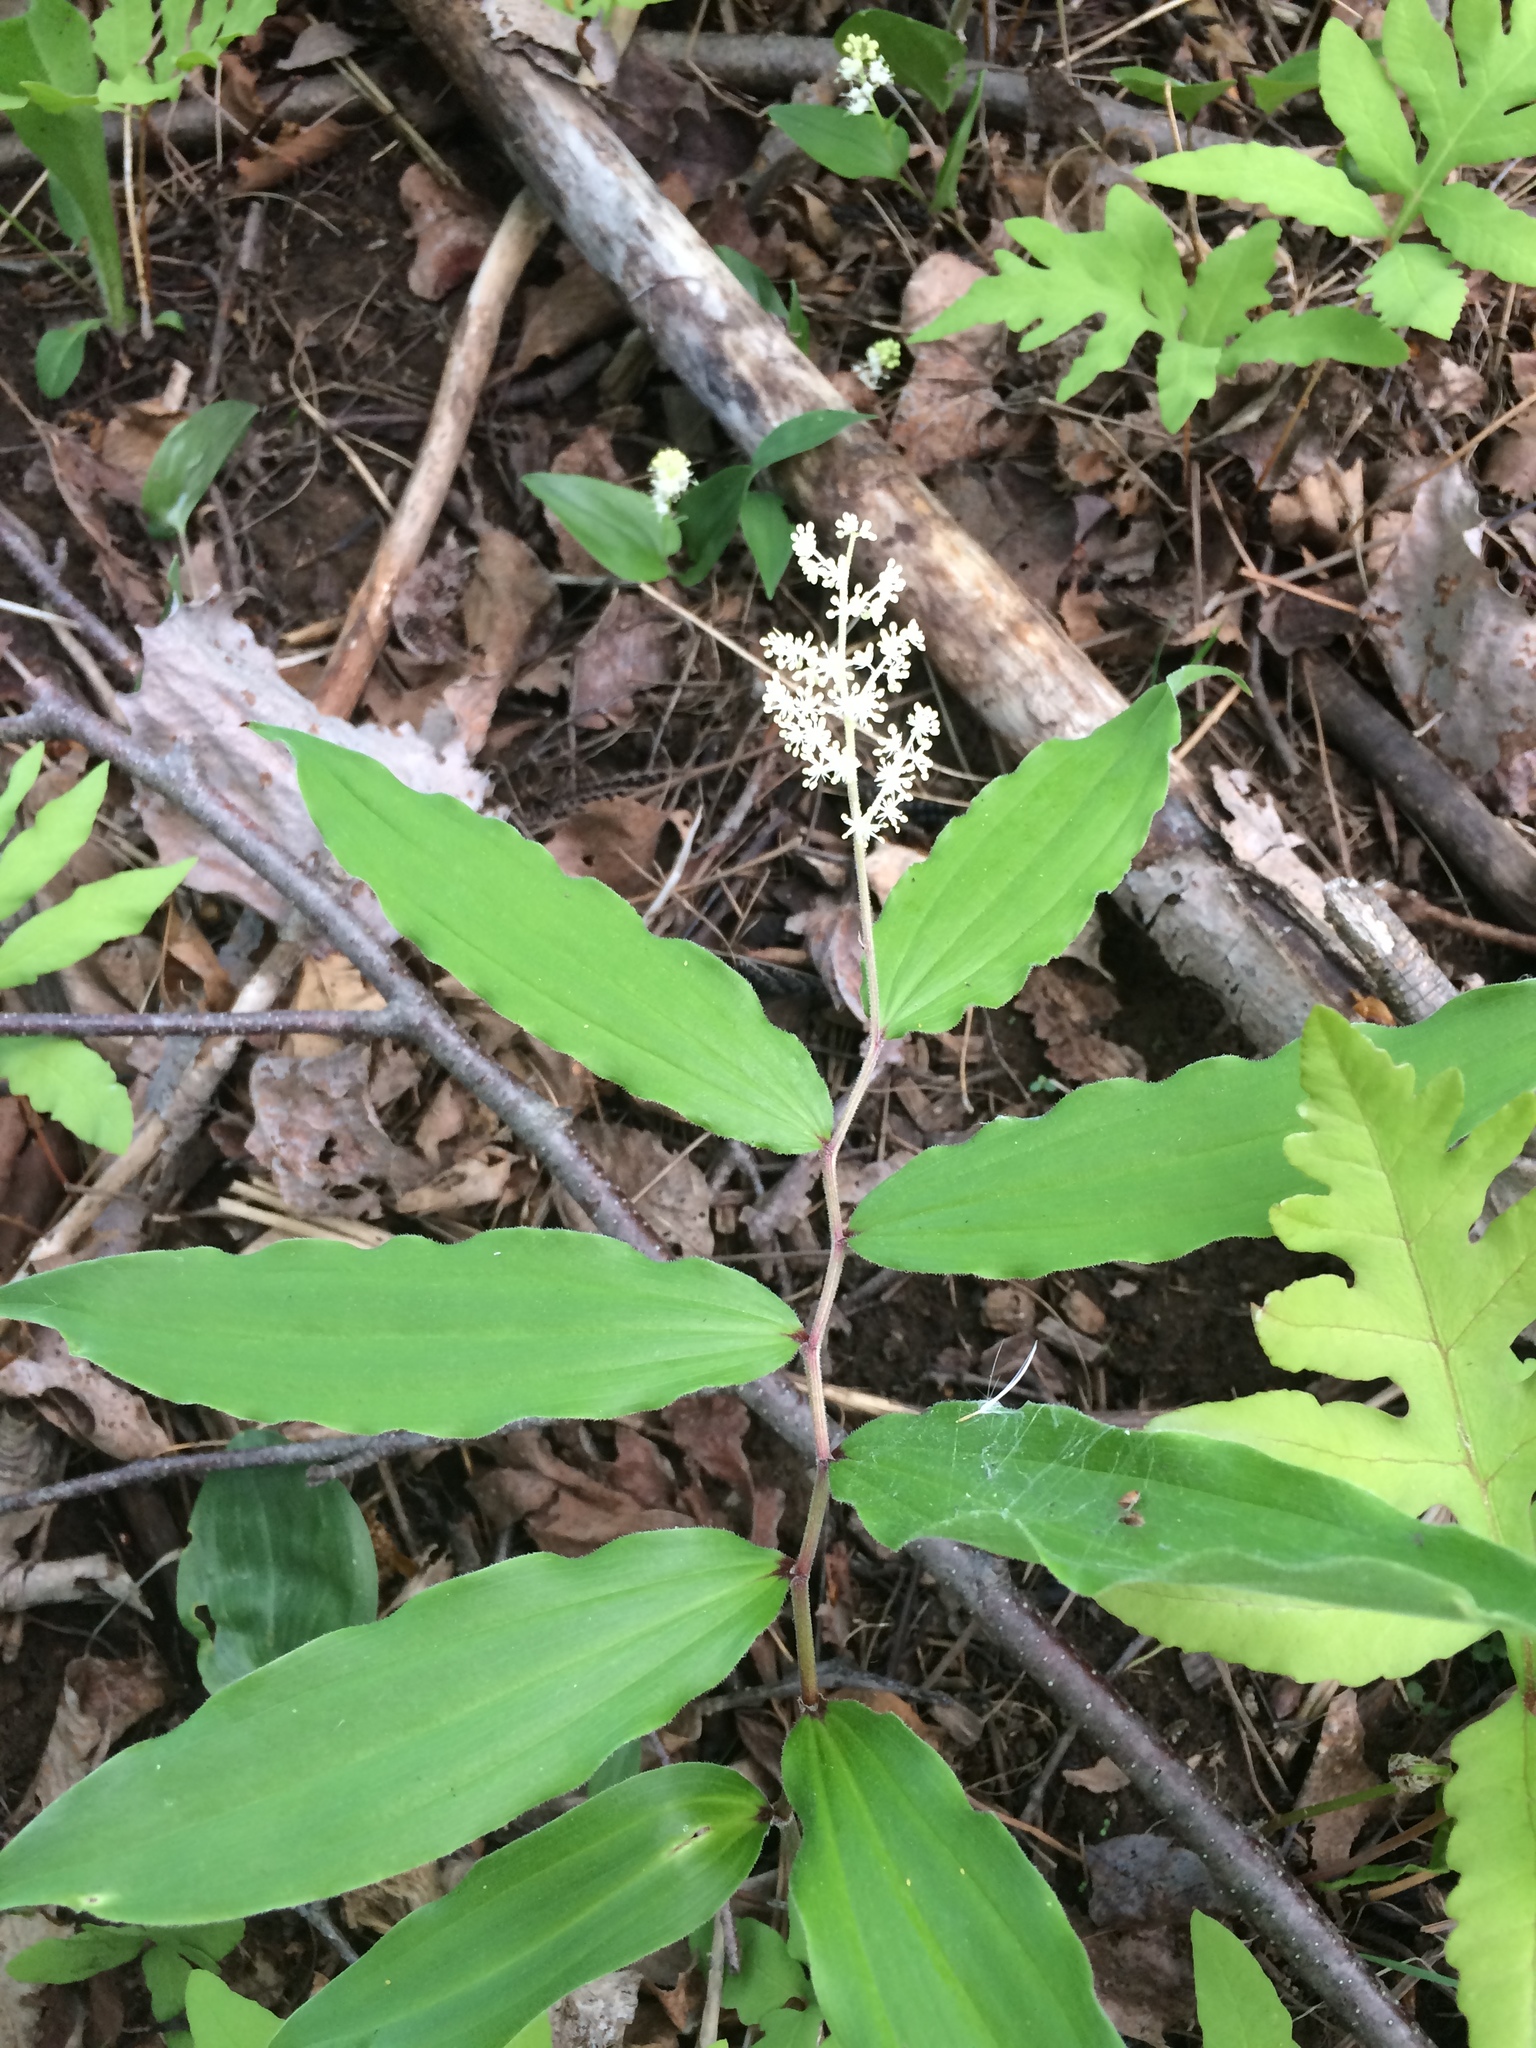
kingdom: Plantae
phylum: Tracheophyta
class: Liliopsida
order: Asparagales
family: Asparagaceae
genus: Maianthemum
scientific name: Maianthemum racemosum
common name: False spikenard
